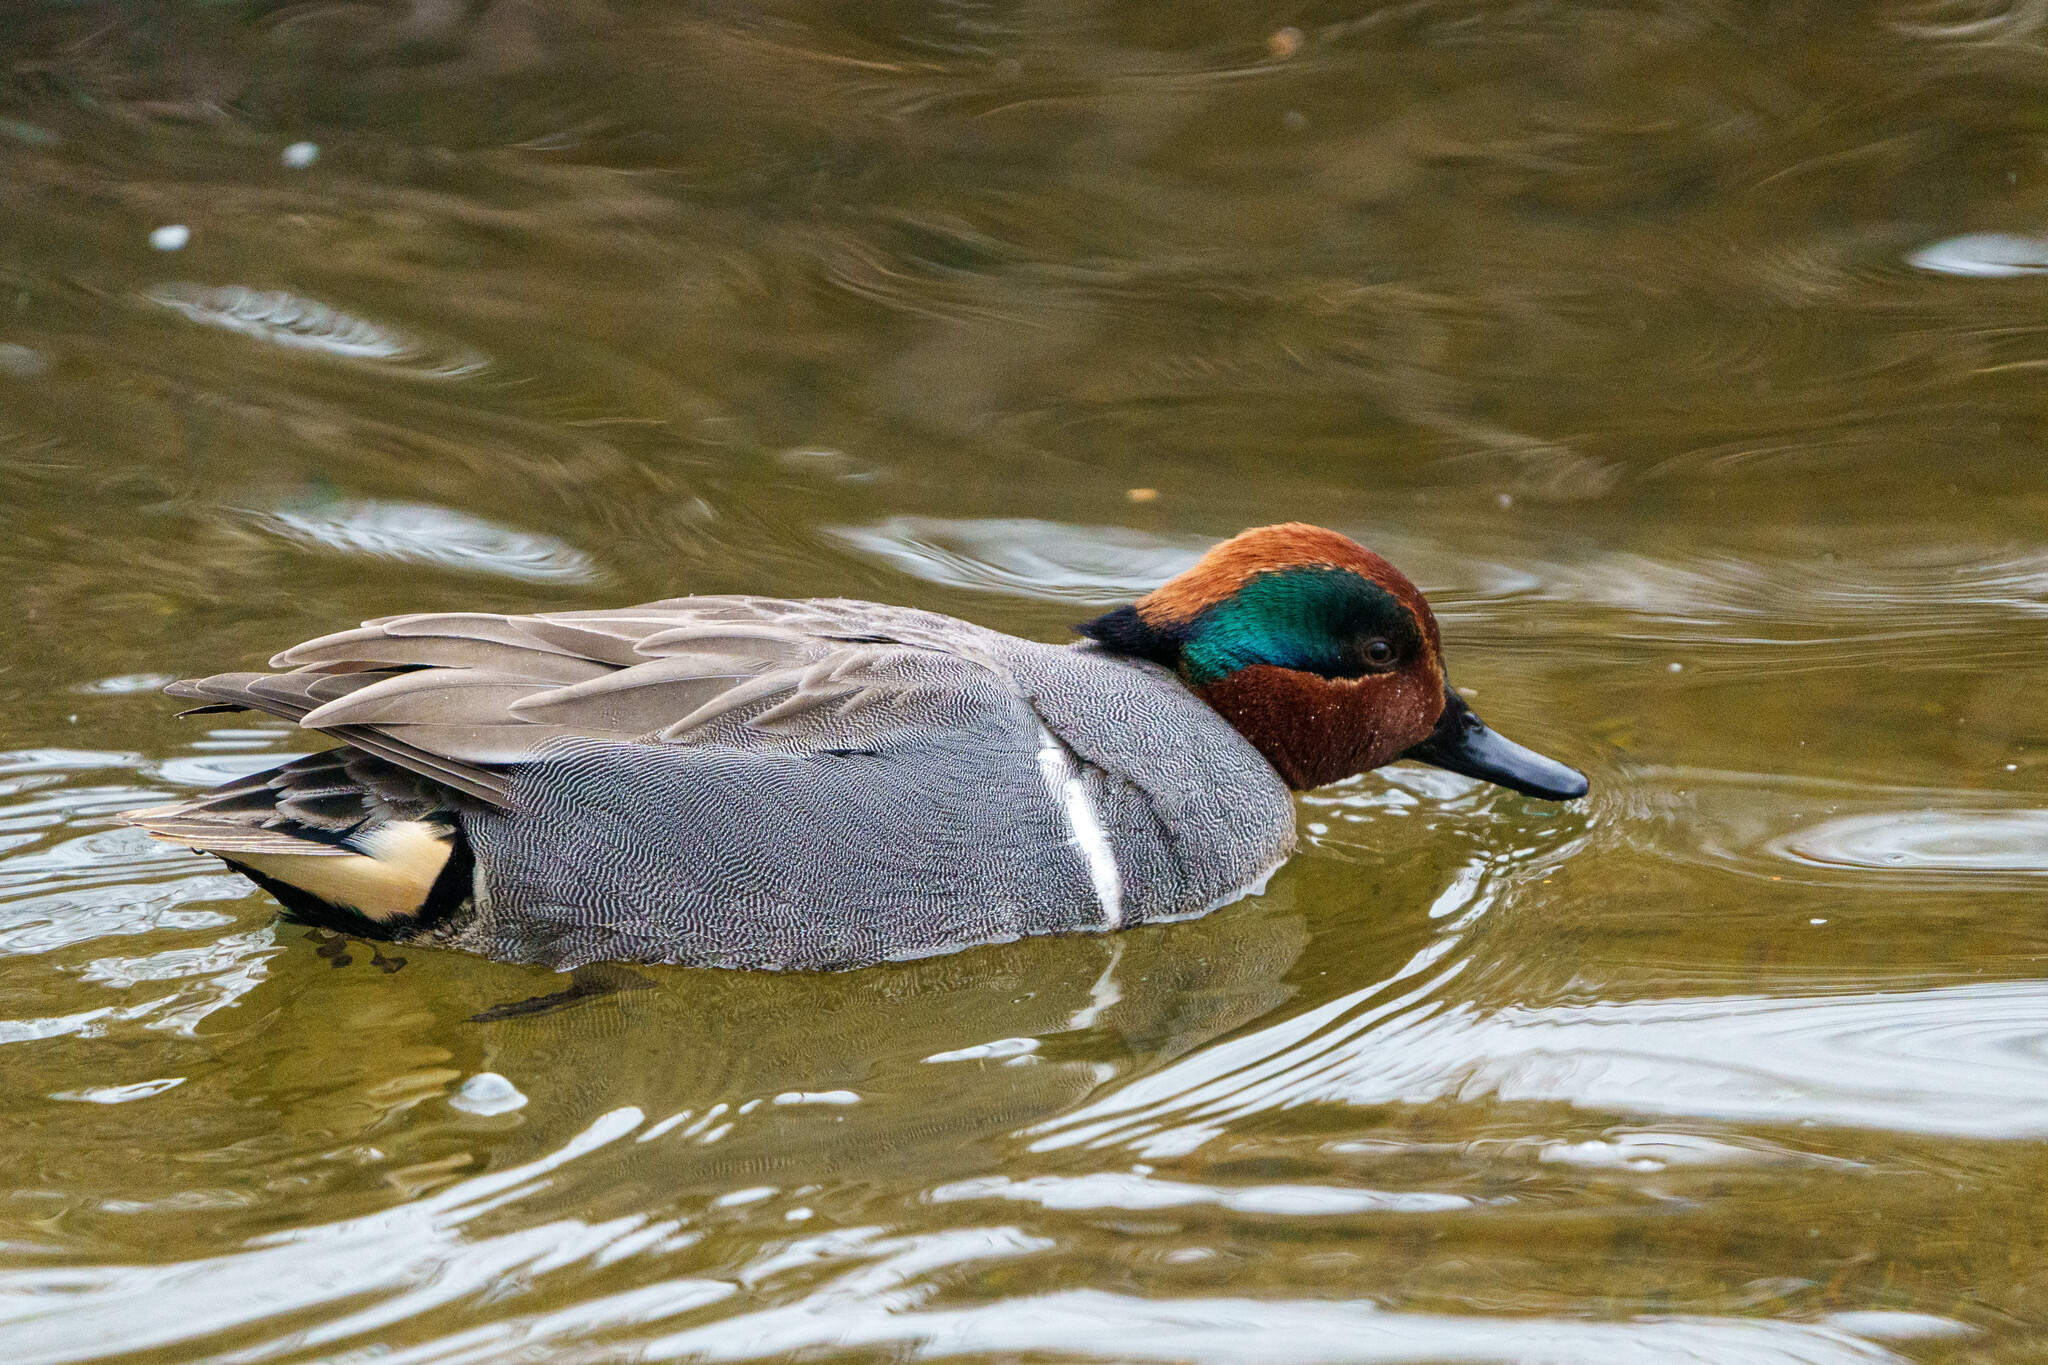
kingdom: Animalia
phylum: Chordata
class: Aves
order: Anseriformes
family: Anatidae
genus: Anas
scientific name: Anas carolinensis
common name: Green-winged teal
